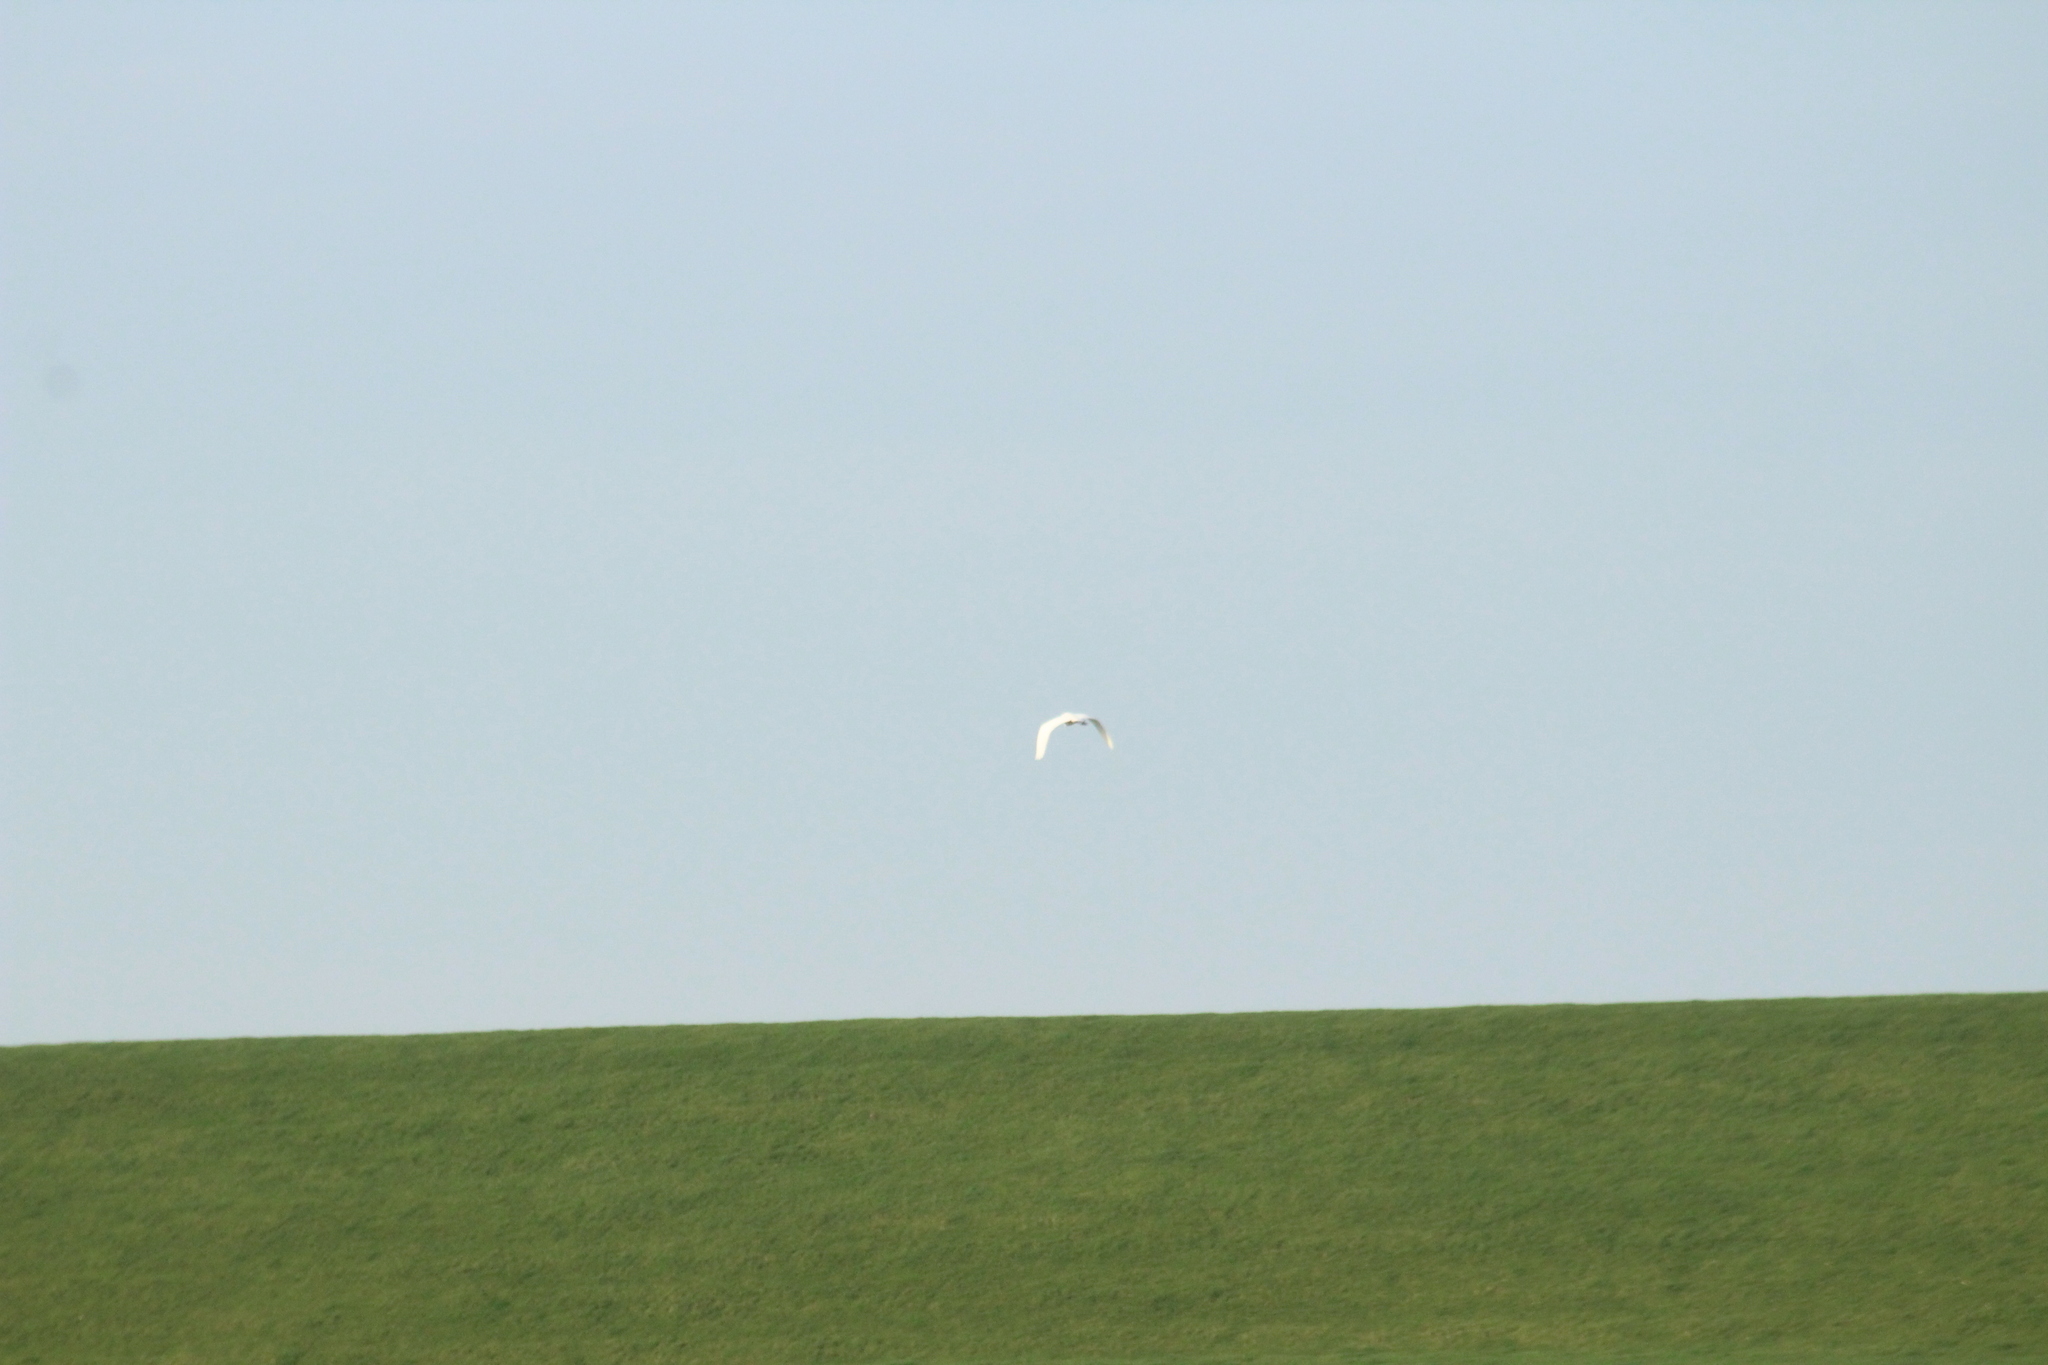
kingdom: Animalia
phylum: Chordata
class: Aves
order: Pelecaniformes
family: Ardeidae
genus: Ardea
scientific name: Ardea alba
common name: Great egret
